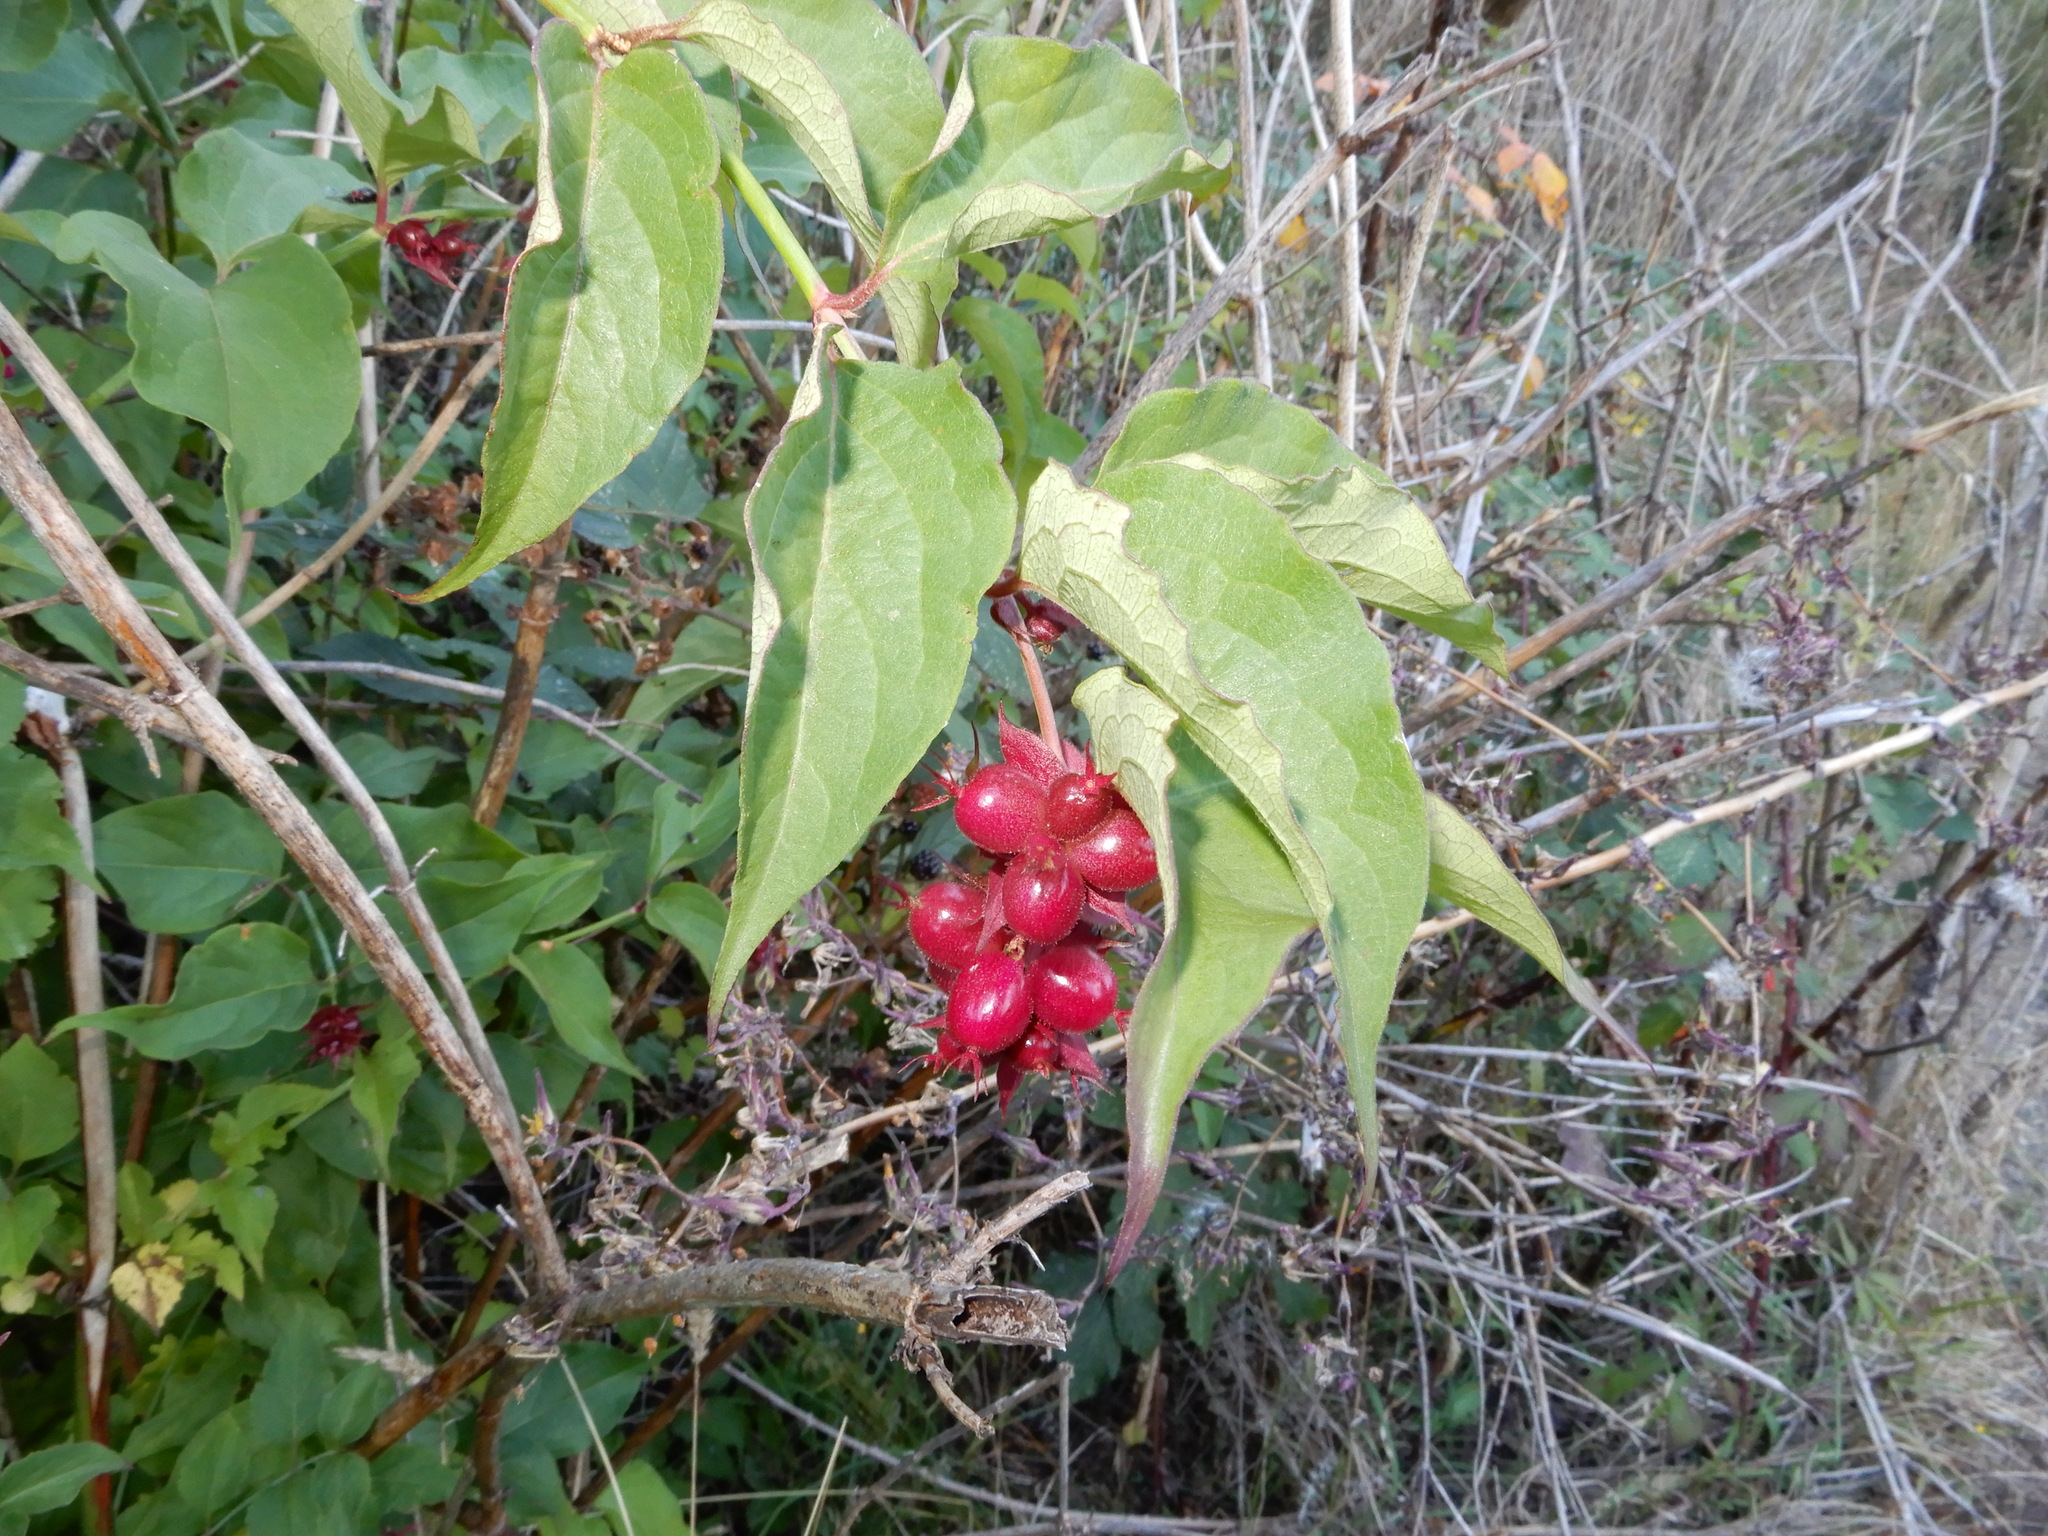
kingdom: Plantae
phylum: Tracheophyta
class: Magnoliopsida
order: Dipsacales
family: Caprifoliaceae
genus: Leycesteria
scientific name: Leycesteria formosa
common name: Himalayan honeysuckle
